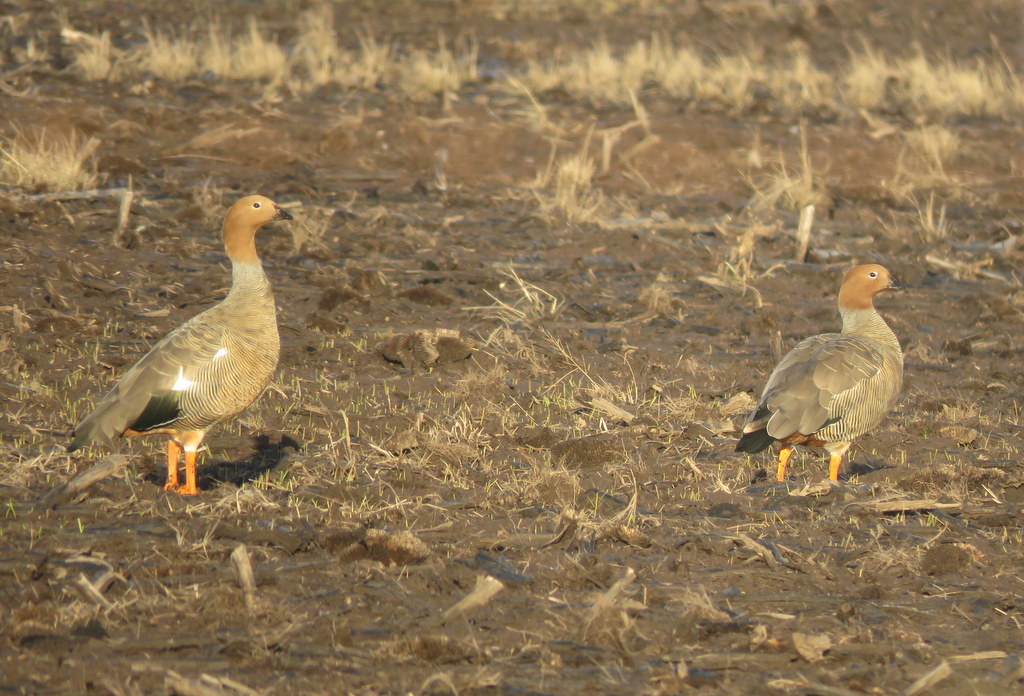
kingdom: Animalia
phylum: Chordata
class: Aves
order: Anseriformes
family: Anatidae
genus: Chloephaga
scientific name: Chloephaga rubidiceps
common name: Ruddy-headed goose
